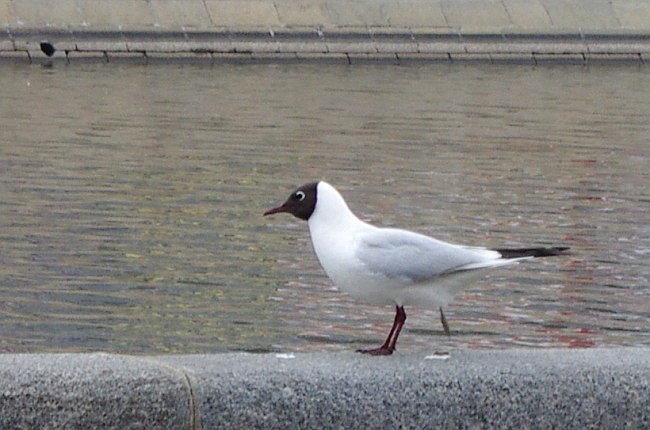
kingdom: Animalia
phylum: Chordata
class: Aves
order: Charadriiformes
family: Laridae
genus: Chroicocephalus
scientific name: Chroicocephalus ridibundus
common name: Black-headed gull
